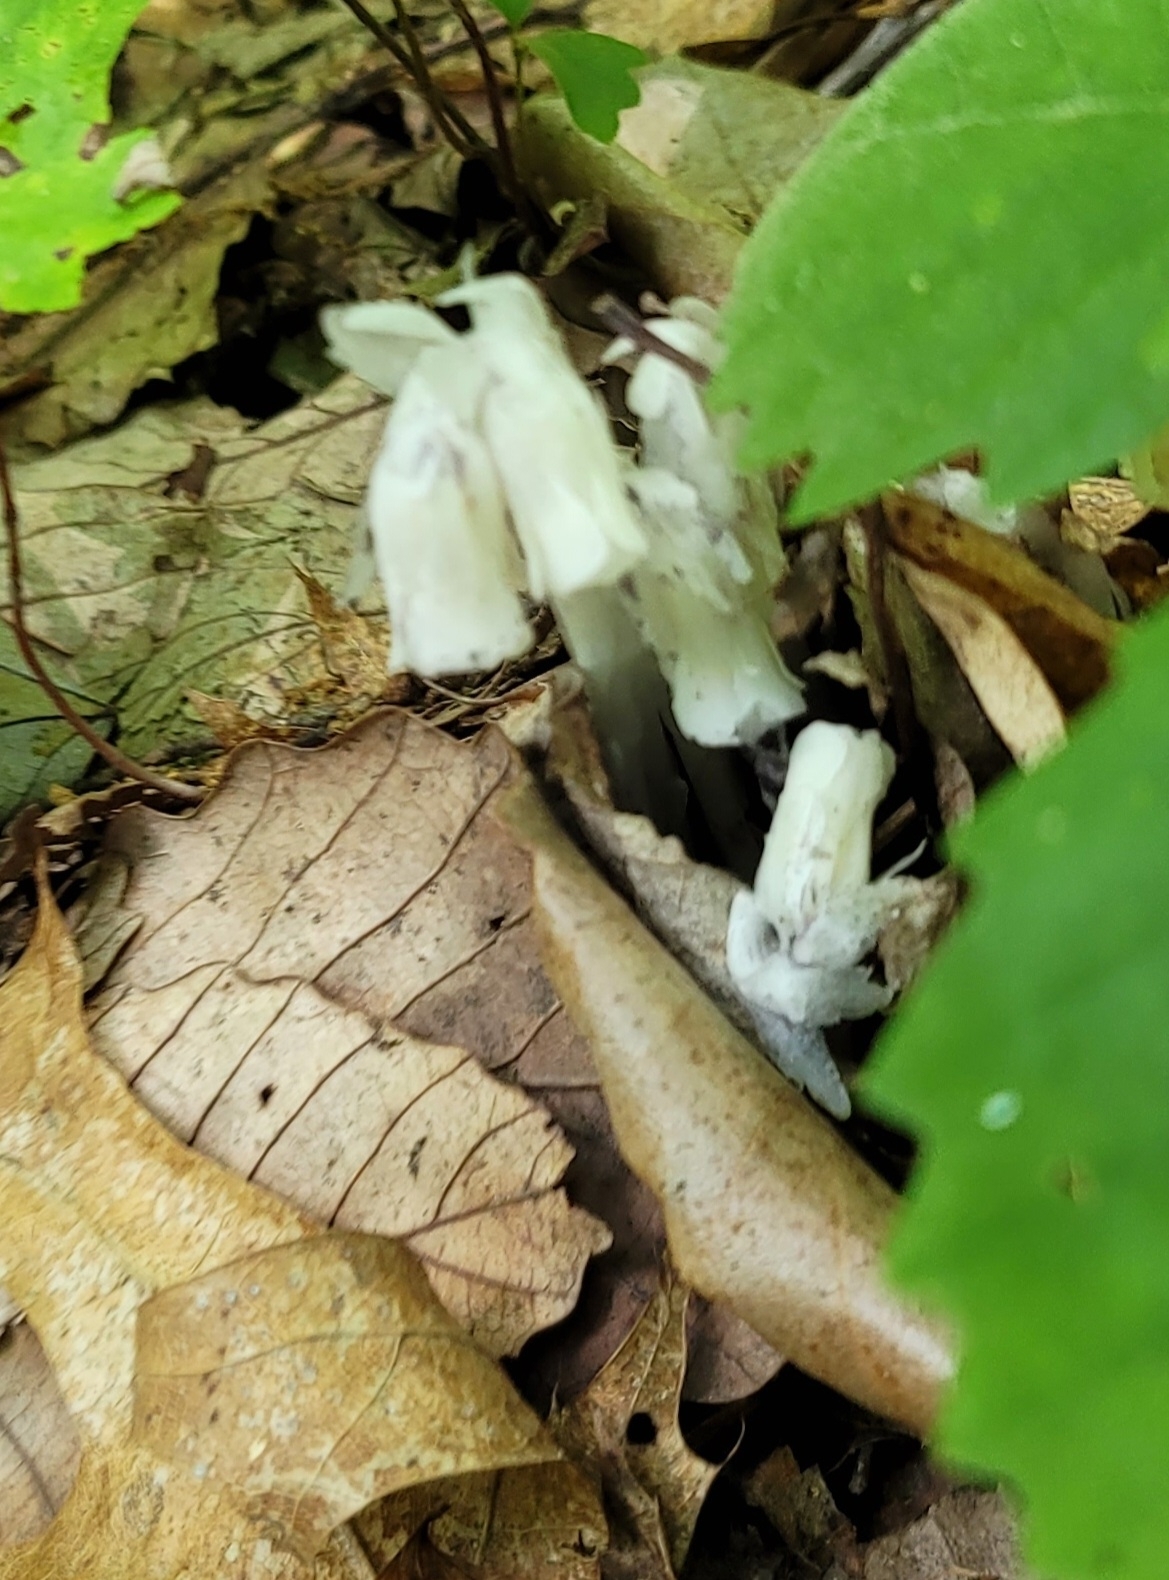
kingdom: Plantae
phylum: Tracheophyta
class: Magnoliopsida
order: Ericales
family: Ericaceae
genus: Monotropa
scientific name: Monotropa uniflora
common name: Convulsion root
